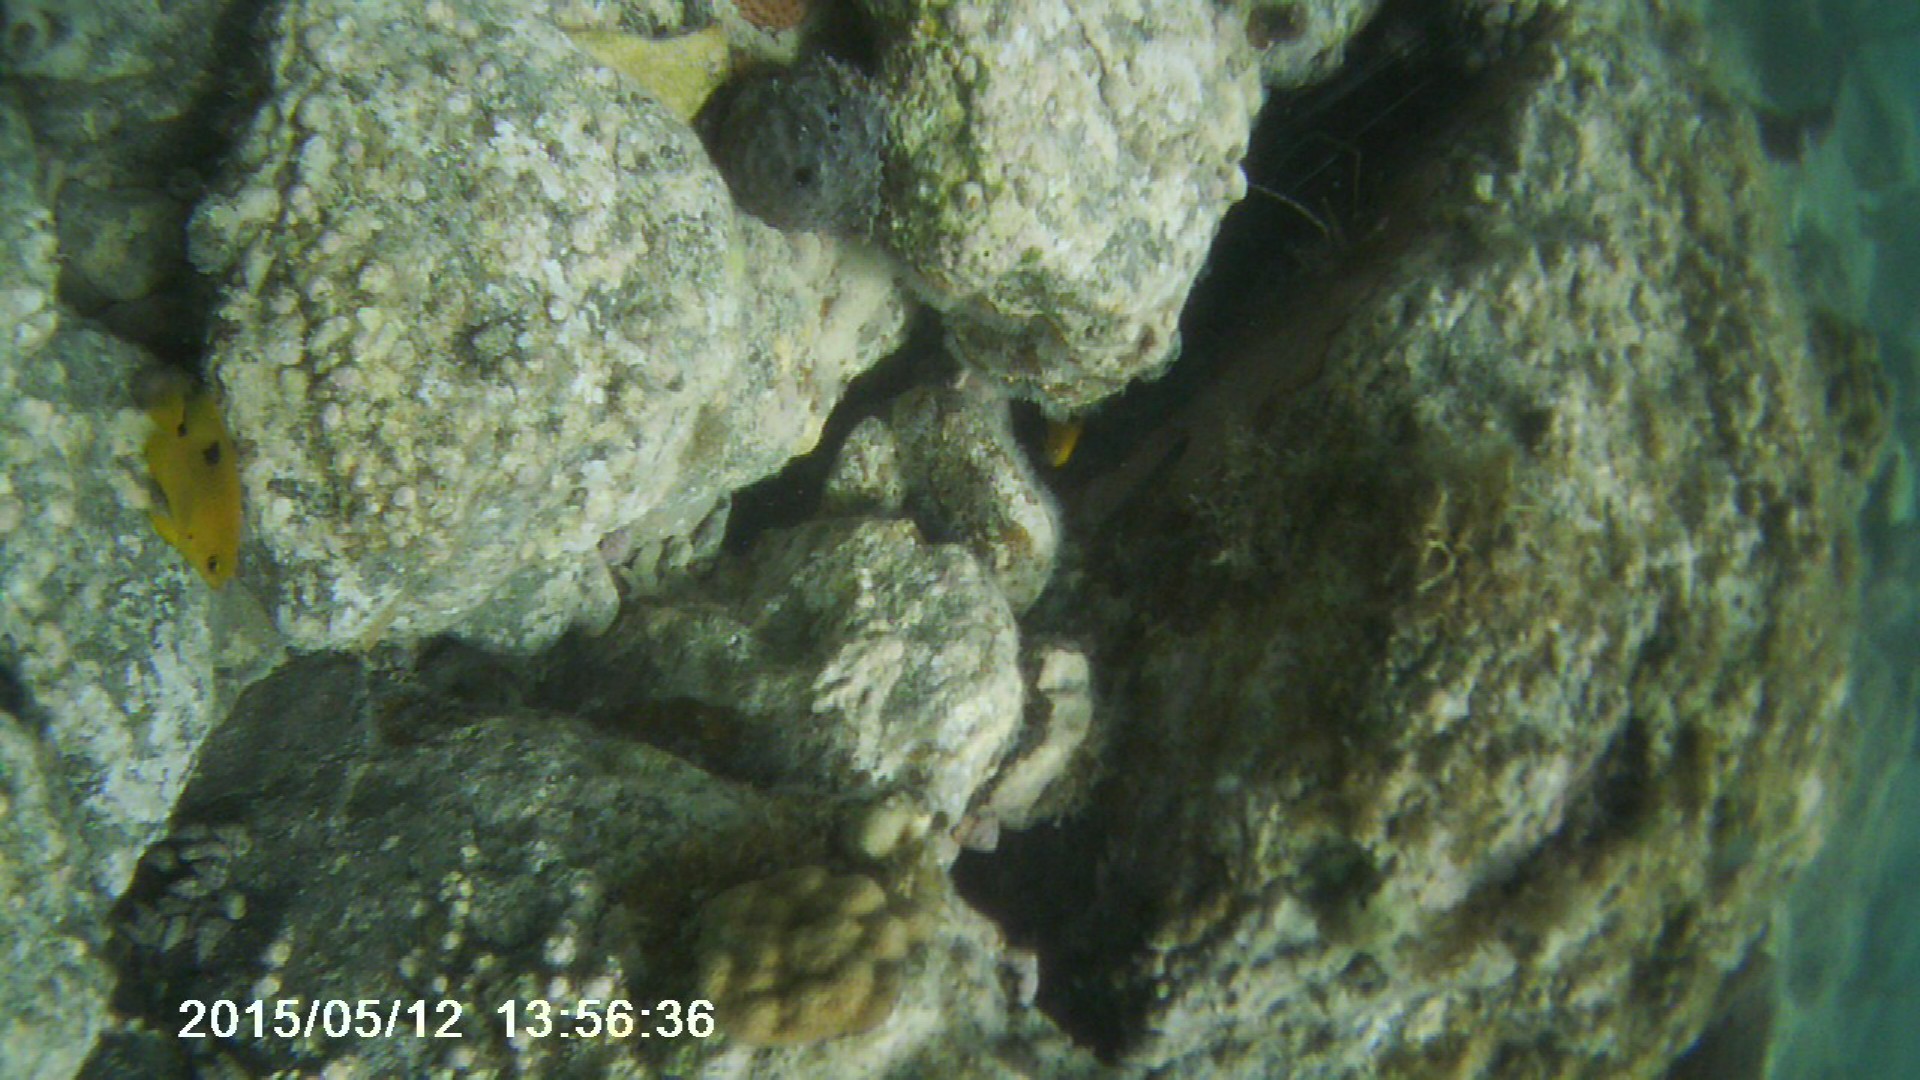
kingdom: Animalia
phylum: Chordata
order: Perciformes
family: Pomacentridae
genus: Stegastes
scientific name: Stegastes planifrons
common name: Threespot damselfish
